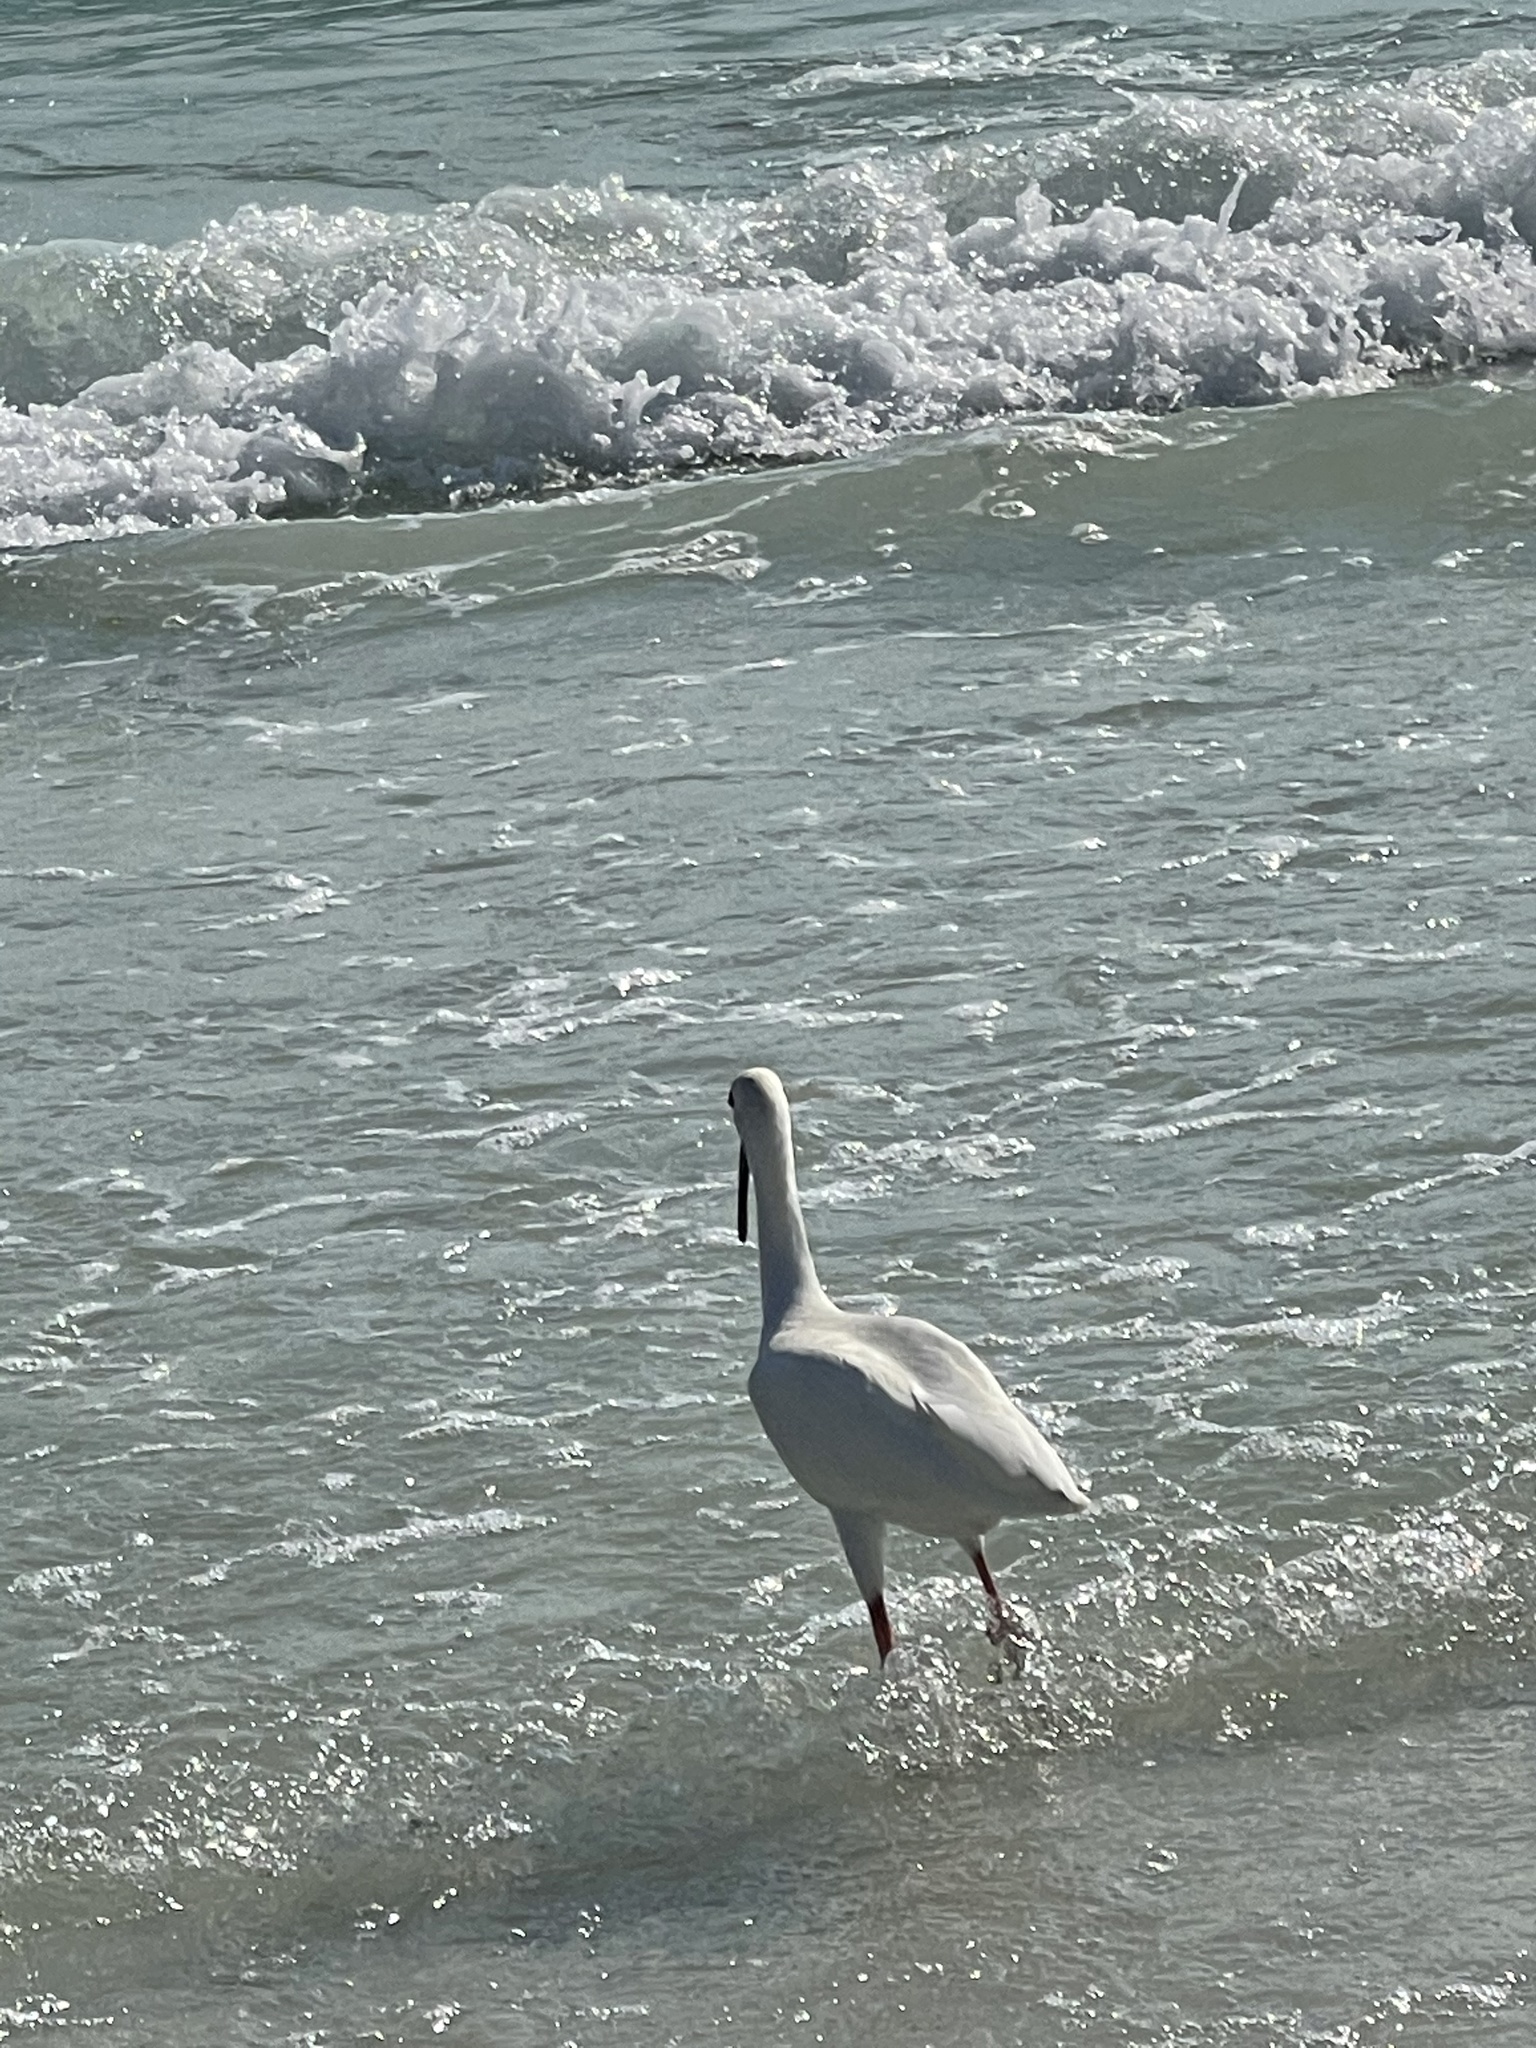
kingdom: Animalia
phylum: Chordata
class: Aves
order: Pelecaniformes
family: Threskiornithidae
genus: Eudocimus
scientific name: Eudocimus albus
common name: White ibis
